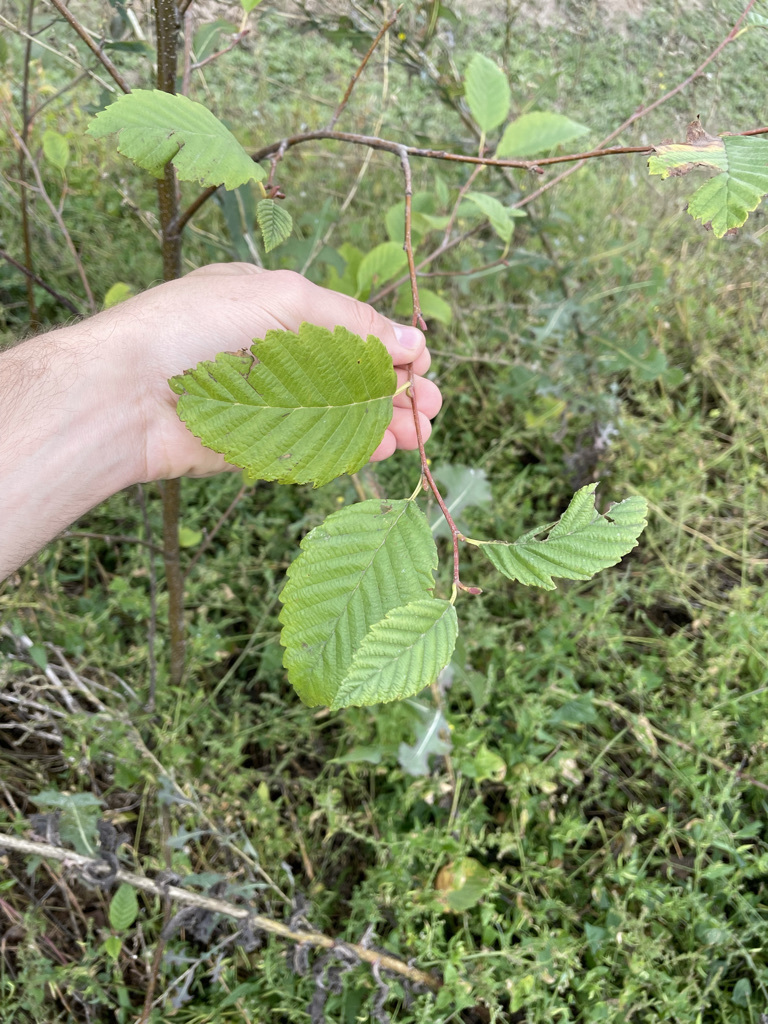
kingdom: Plantae
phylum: Tracheophyta
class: Magnoliopsida
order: Fagales
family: Betulaceae
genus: Alnus
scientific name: Alnus rubra
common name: Red alder
